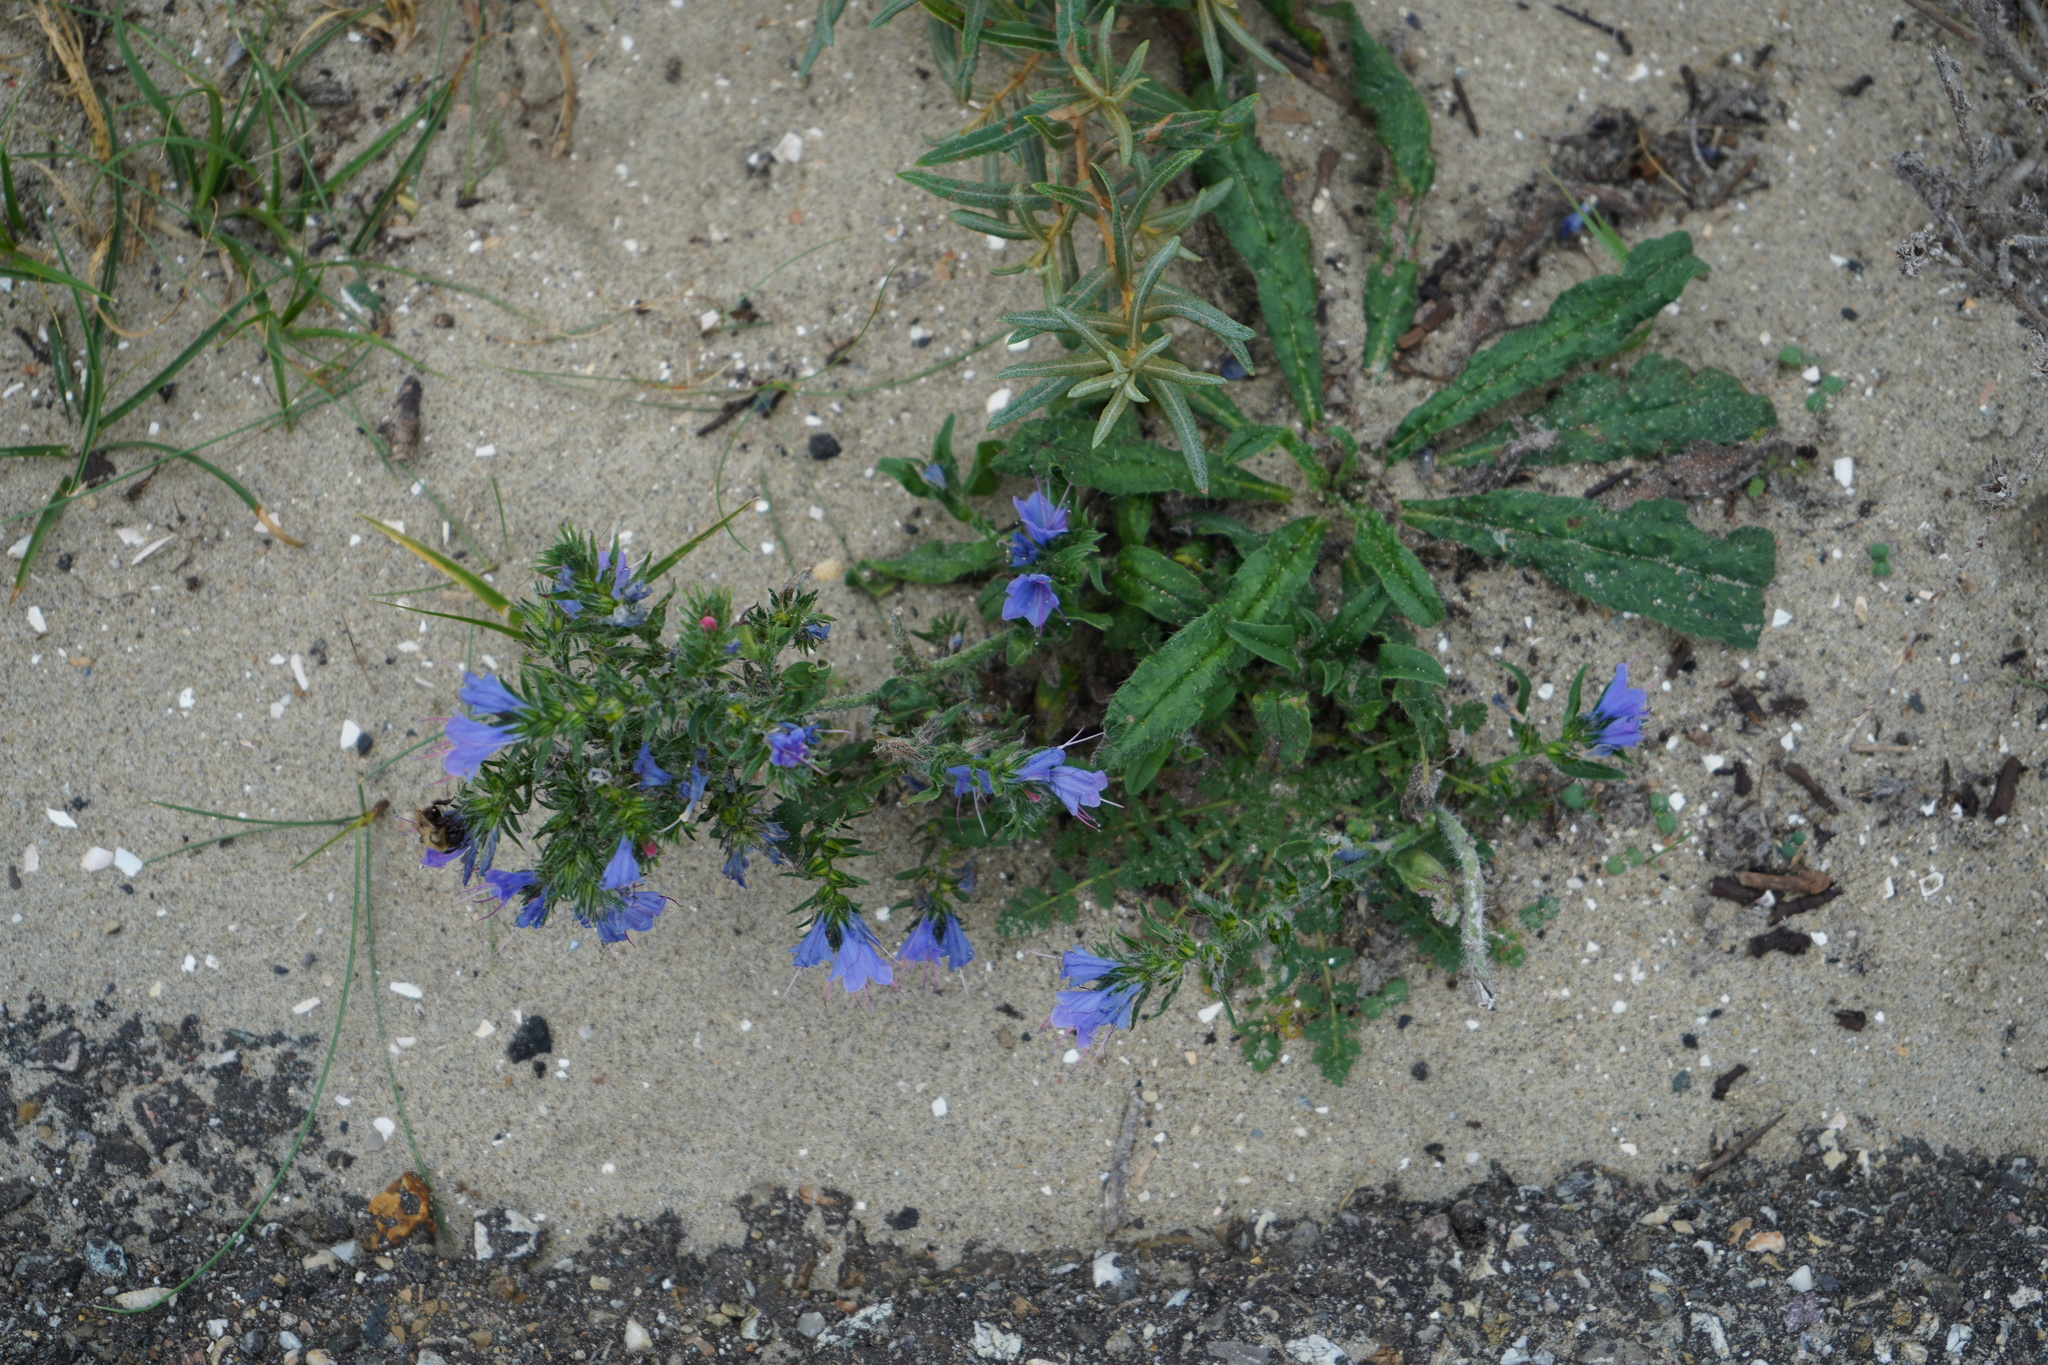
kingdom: Plantae
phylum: Tracheophyta
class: Magnoliopsida
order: Boraginales
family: Boraginaceae
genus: Echium
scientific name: Echium vulgare
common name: Common viper's bugloss
